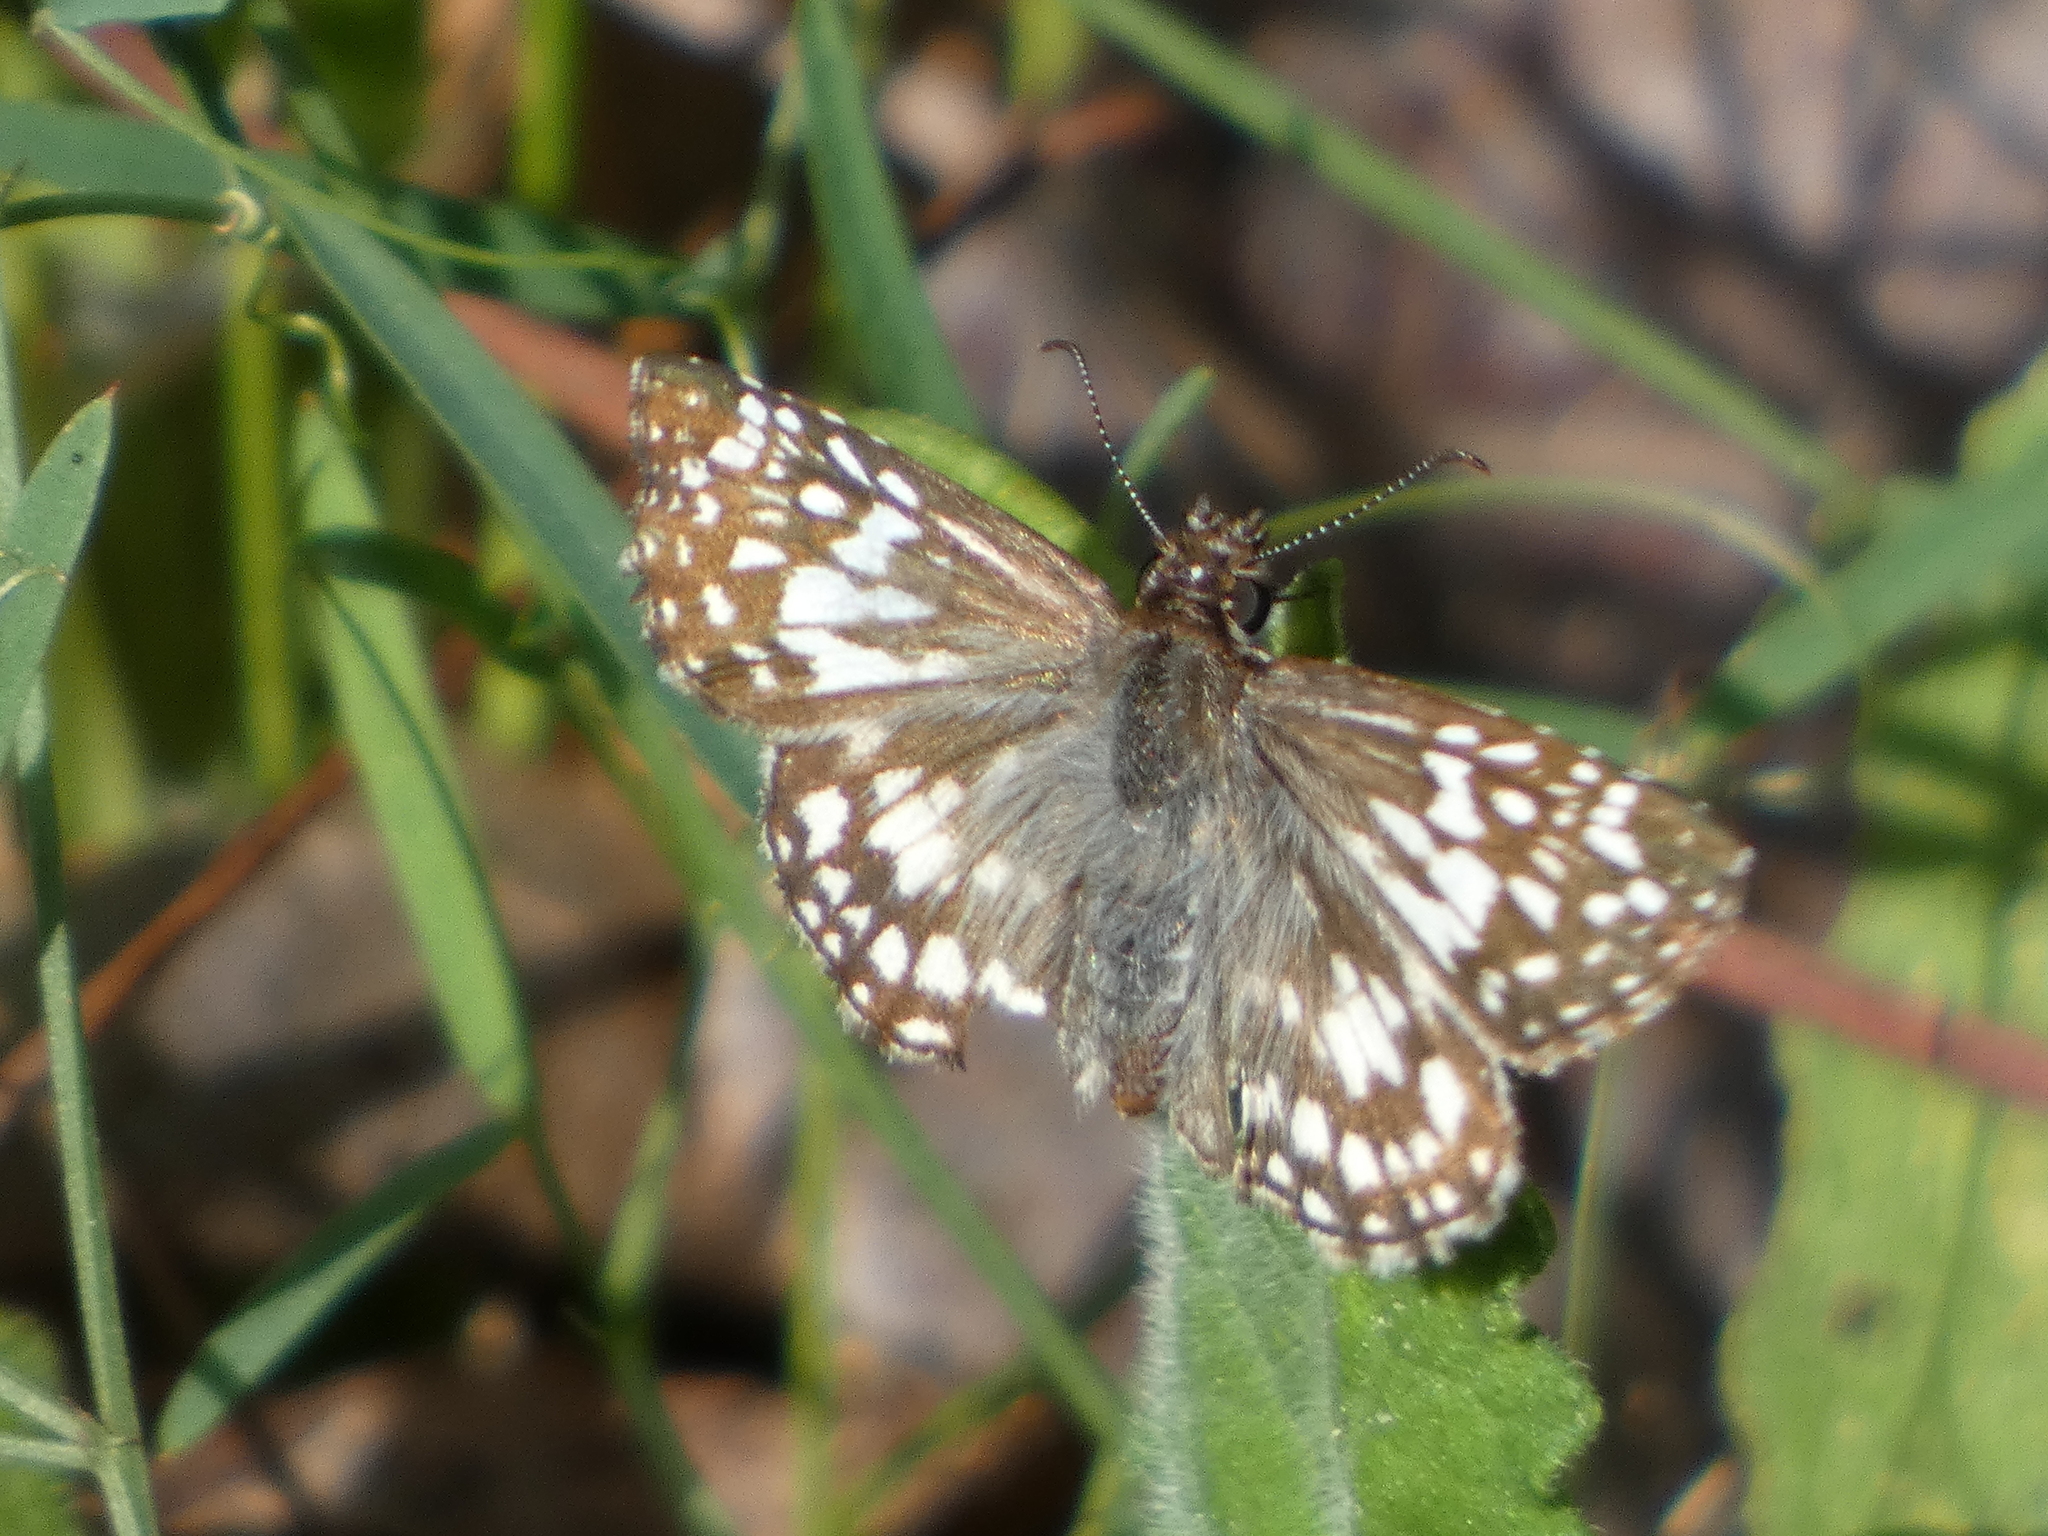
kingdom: Animalia
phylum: Arthropoda
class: Insecta
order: Lepidoptera
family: Hesperiidae
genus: Pyrgus
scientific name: Pyrgus oileus
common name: Tropical checkered-skipper
